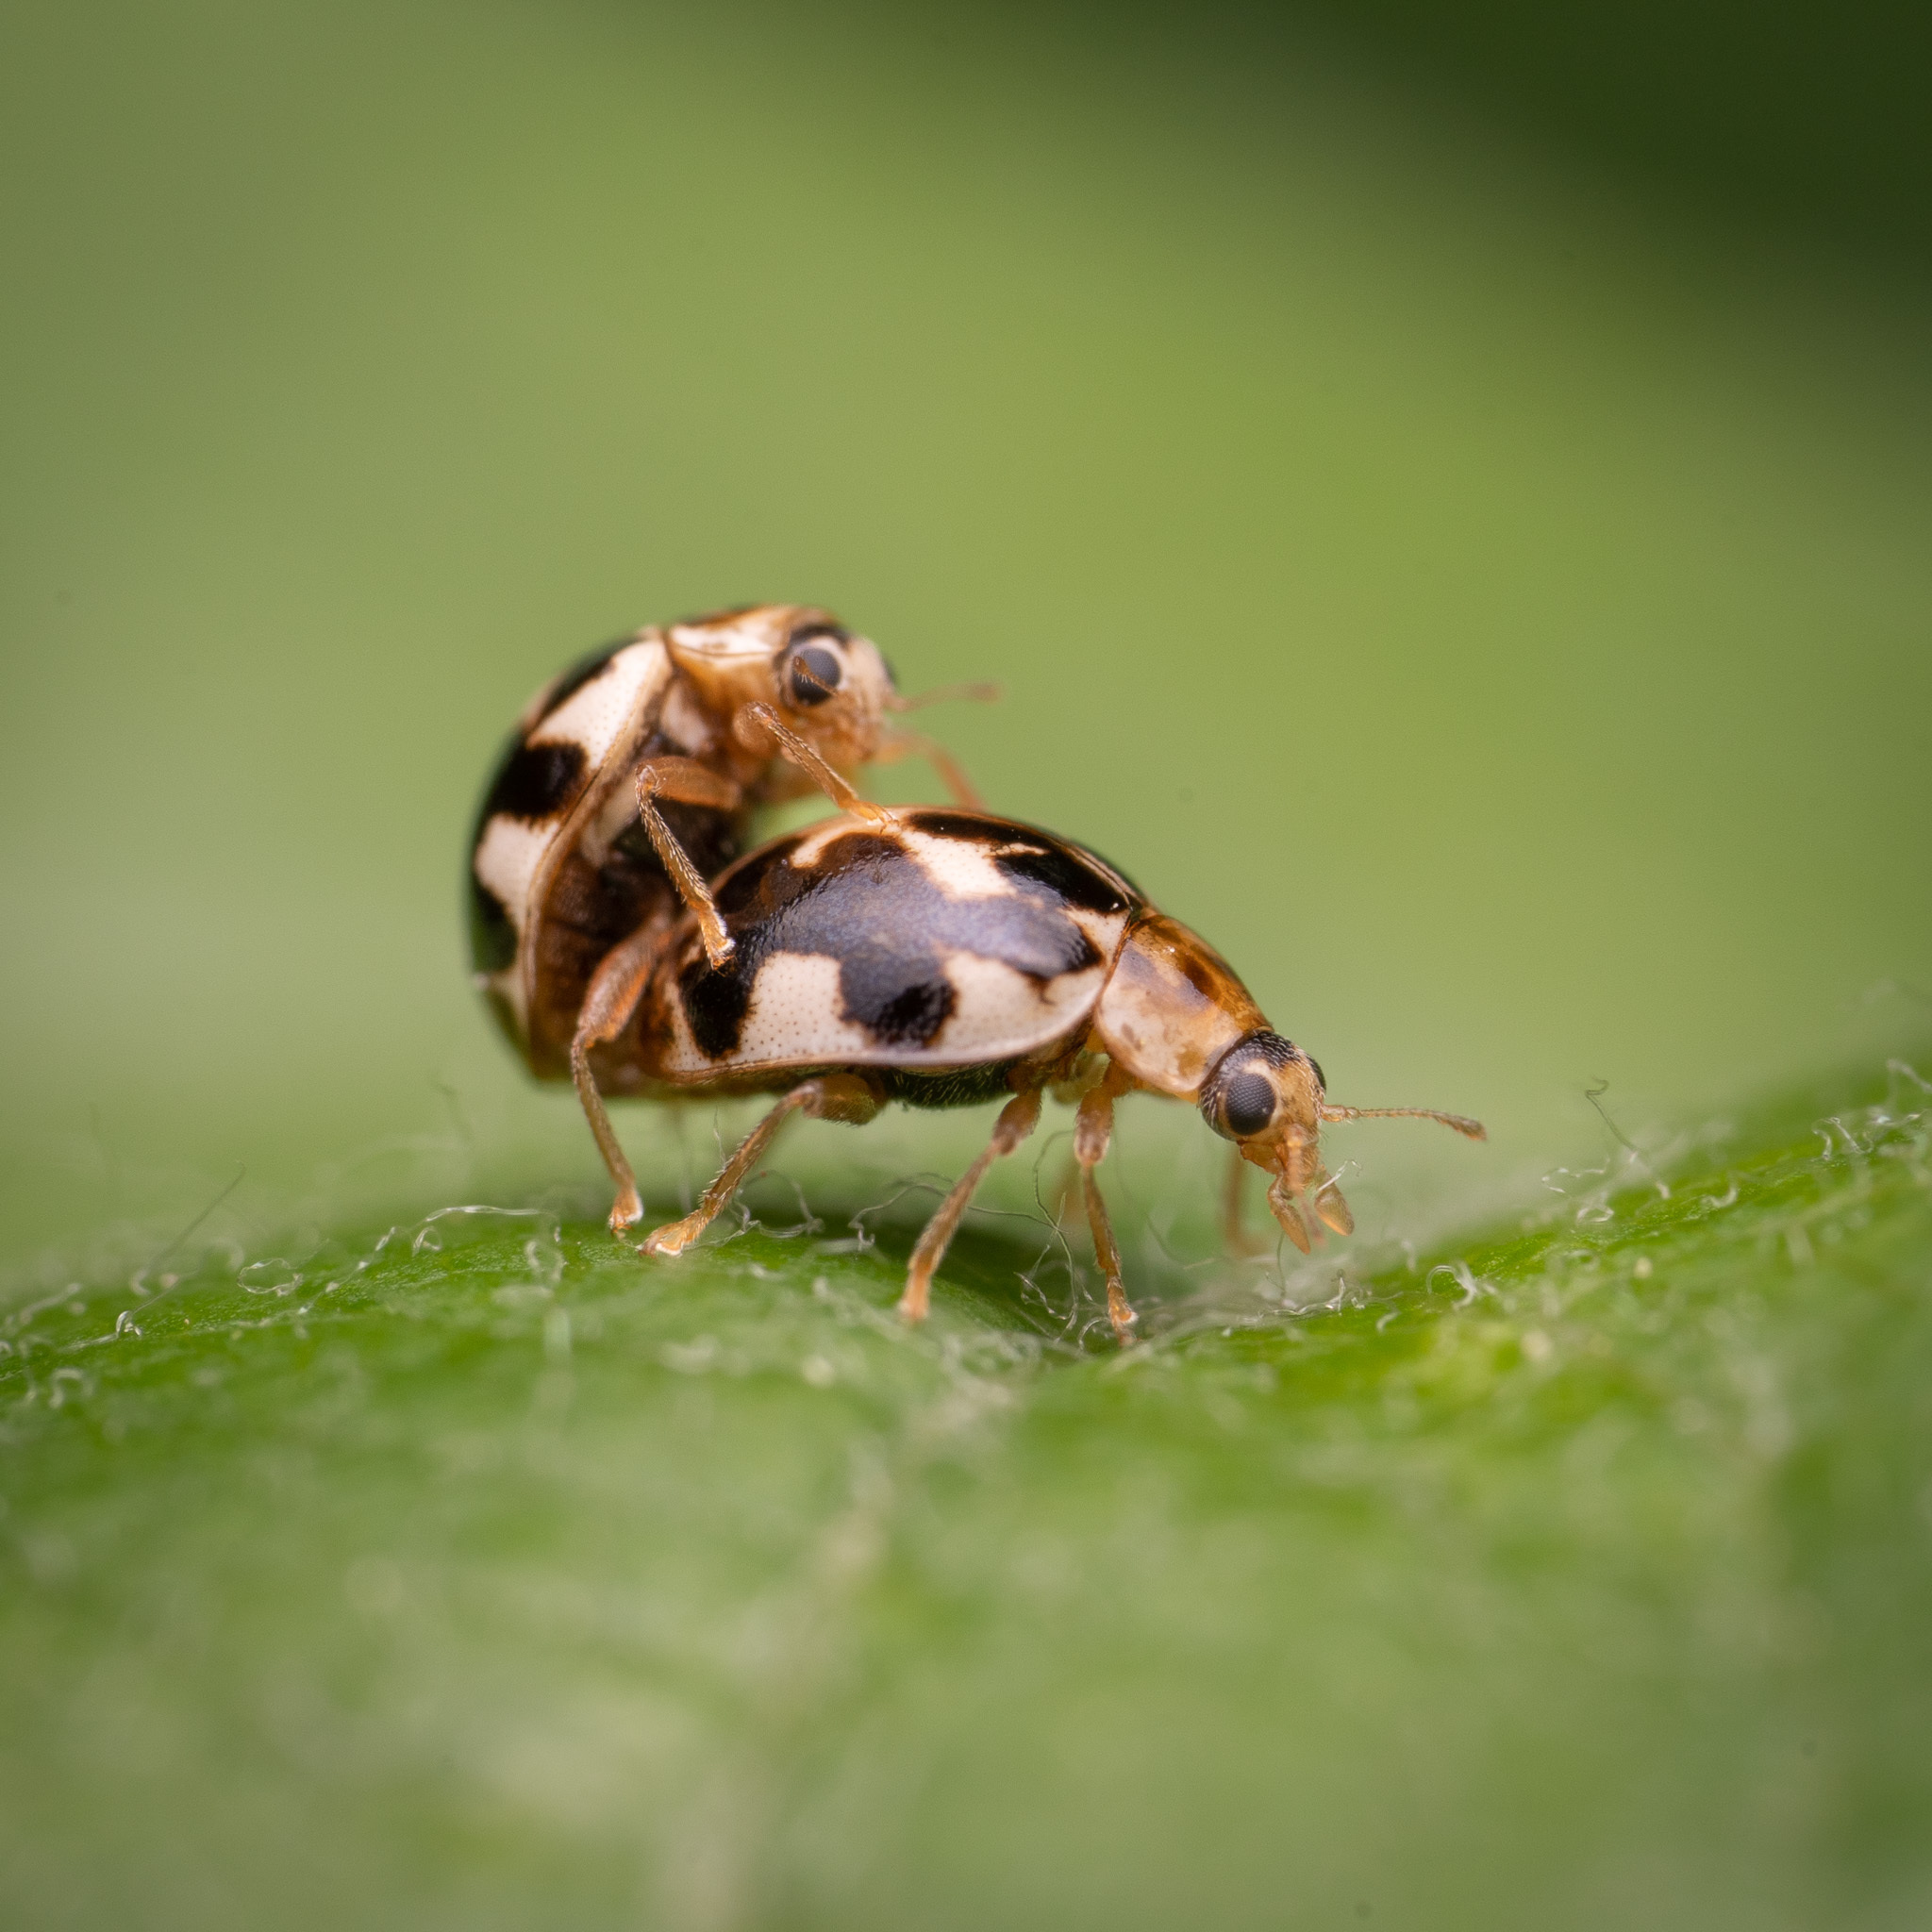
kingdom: Animalia
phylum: Arthropoda
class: Insecta
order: Coleoptera
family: Coccinellidae
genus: Psyllobora
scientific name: Psyllobora vigintimaculata
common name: Ladybird beetle
